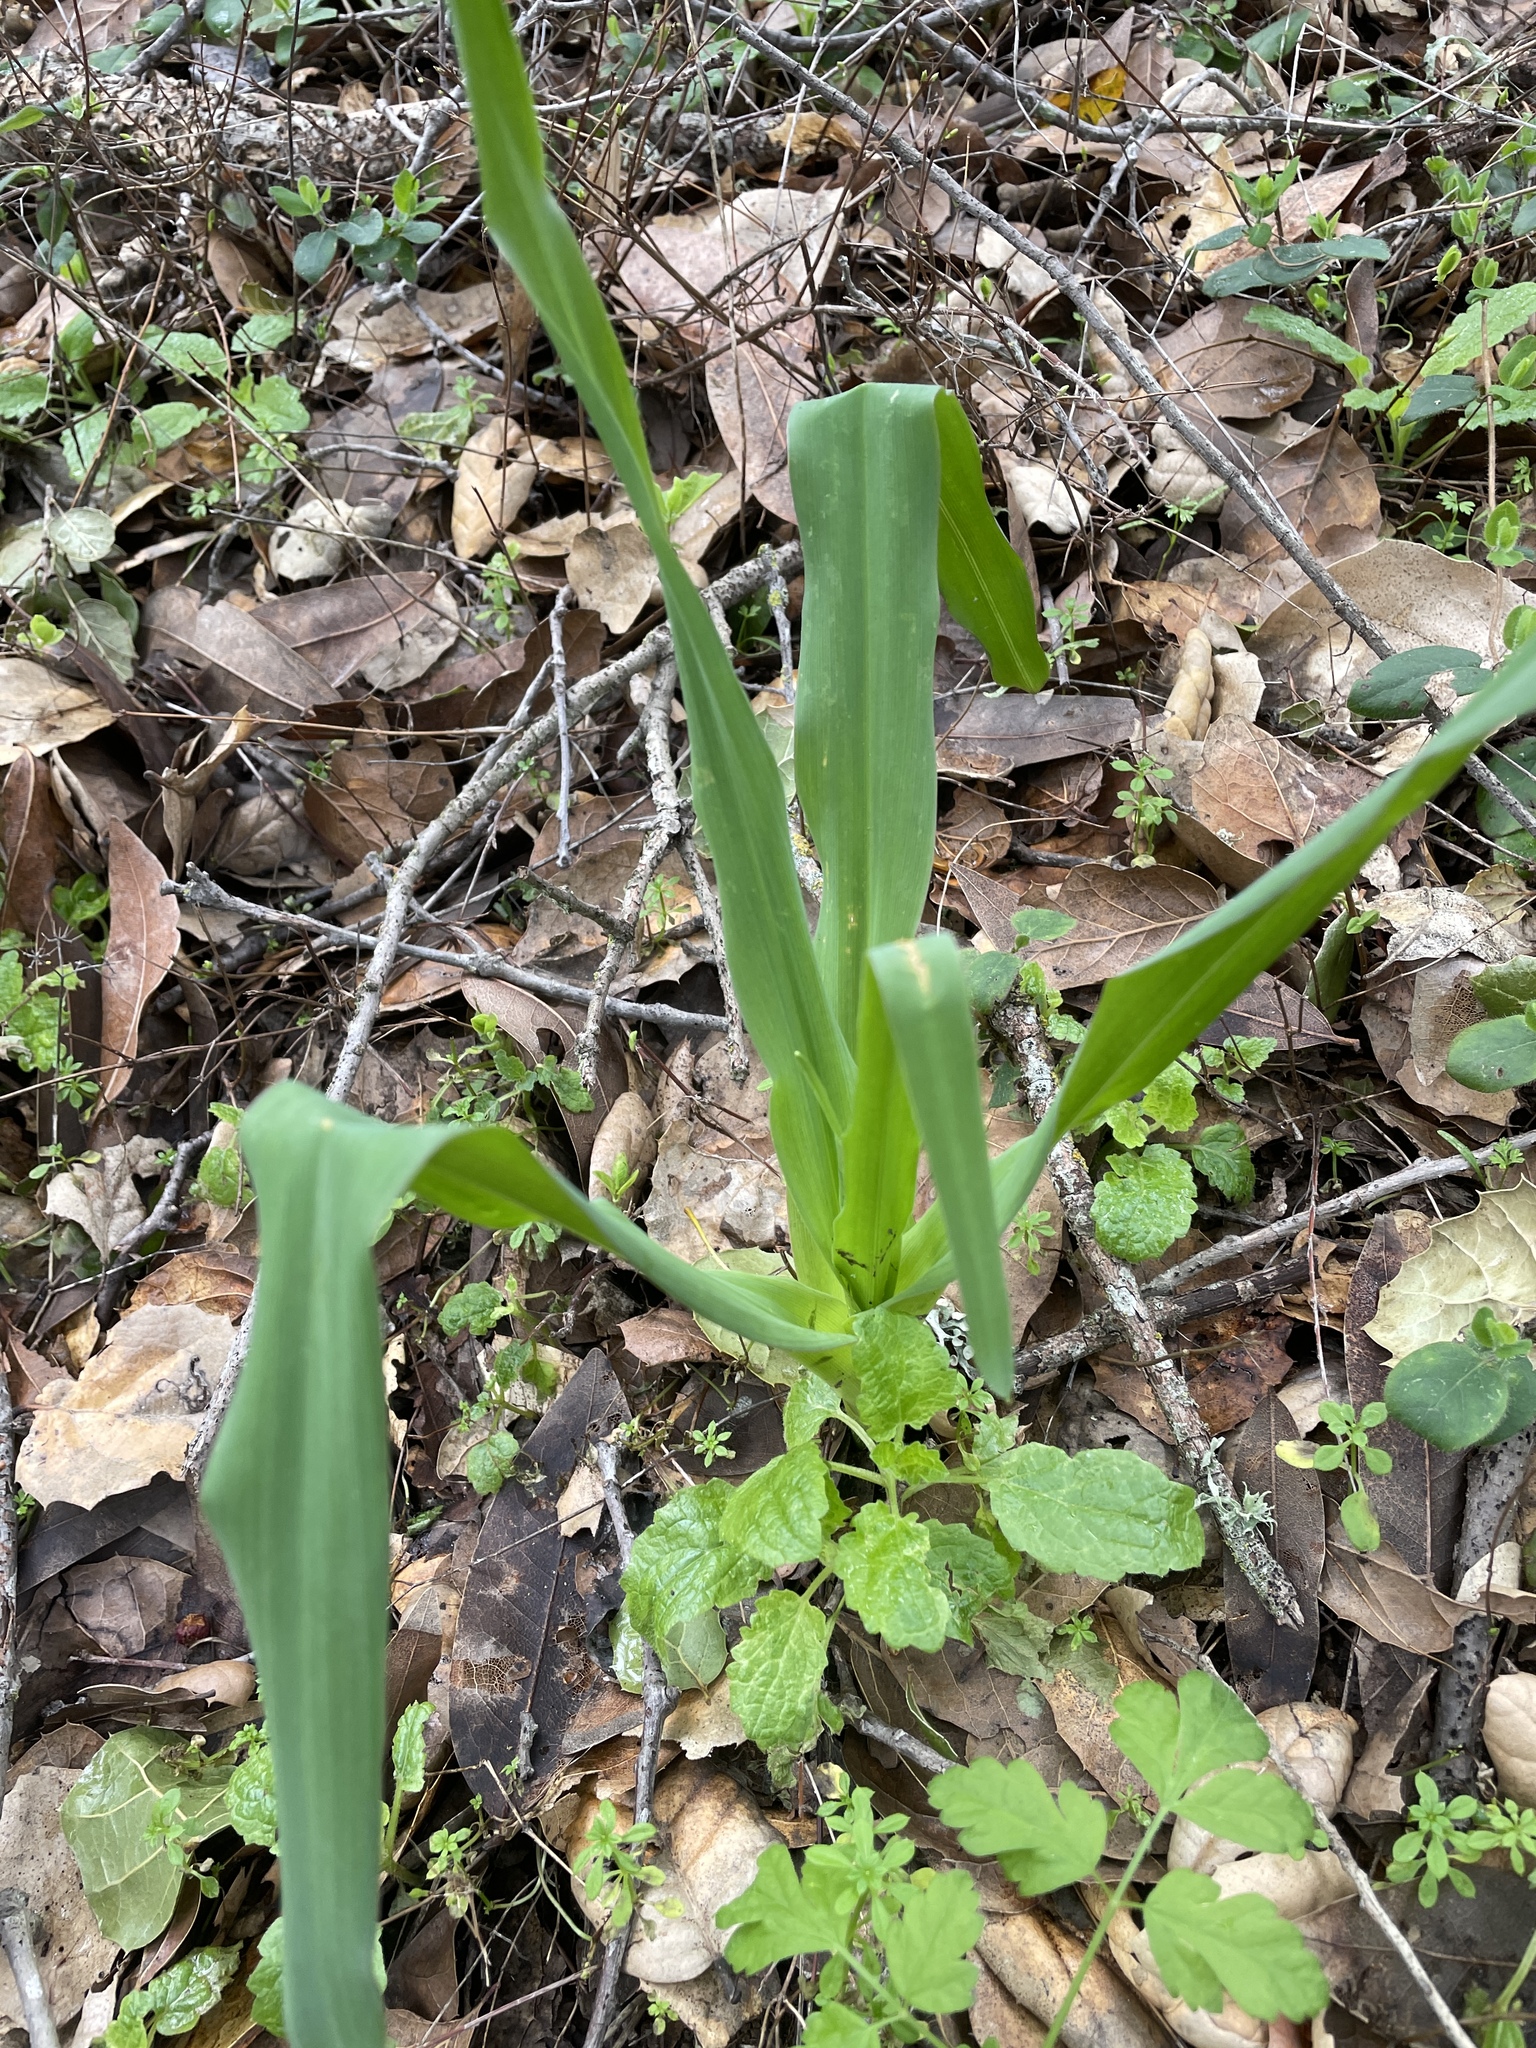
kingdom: Plantae
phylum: Tracheophyta
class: Liliopsida
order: Asparagales
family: Asparagaceae
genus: Chlorogalum
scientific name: Chlorogalum pomeridianum
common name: Amole
